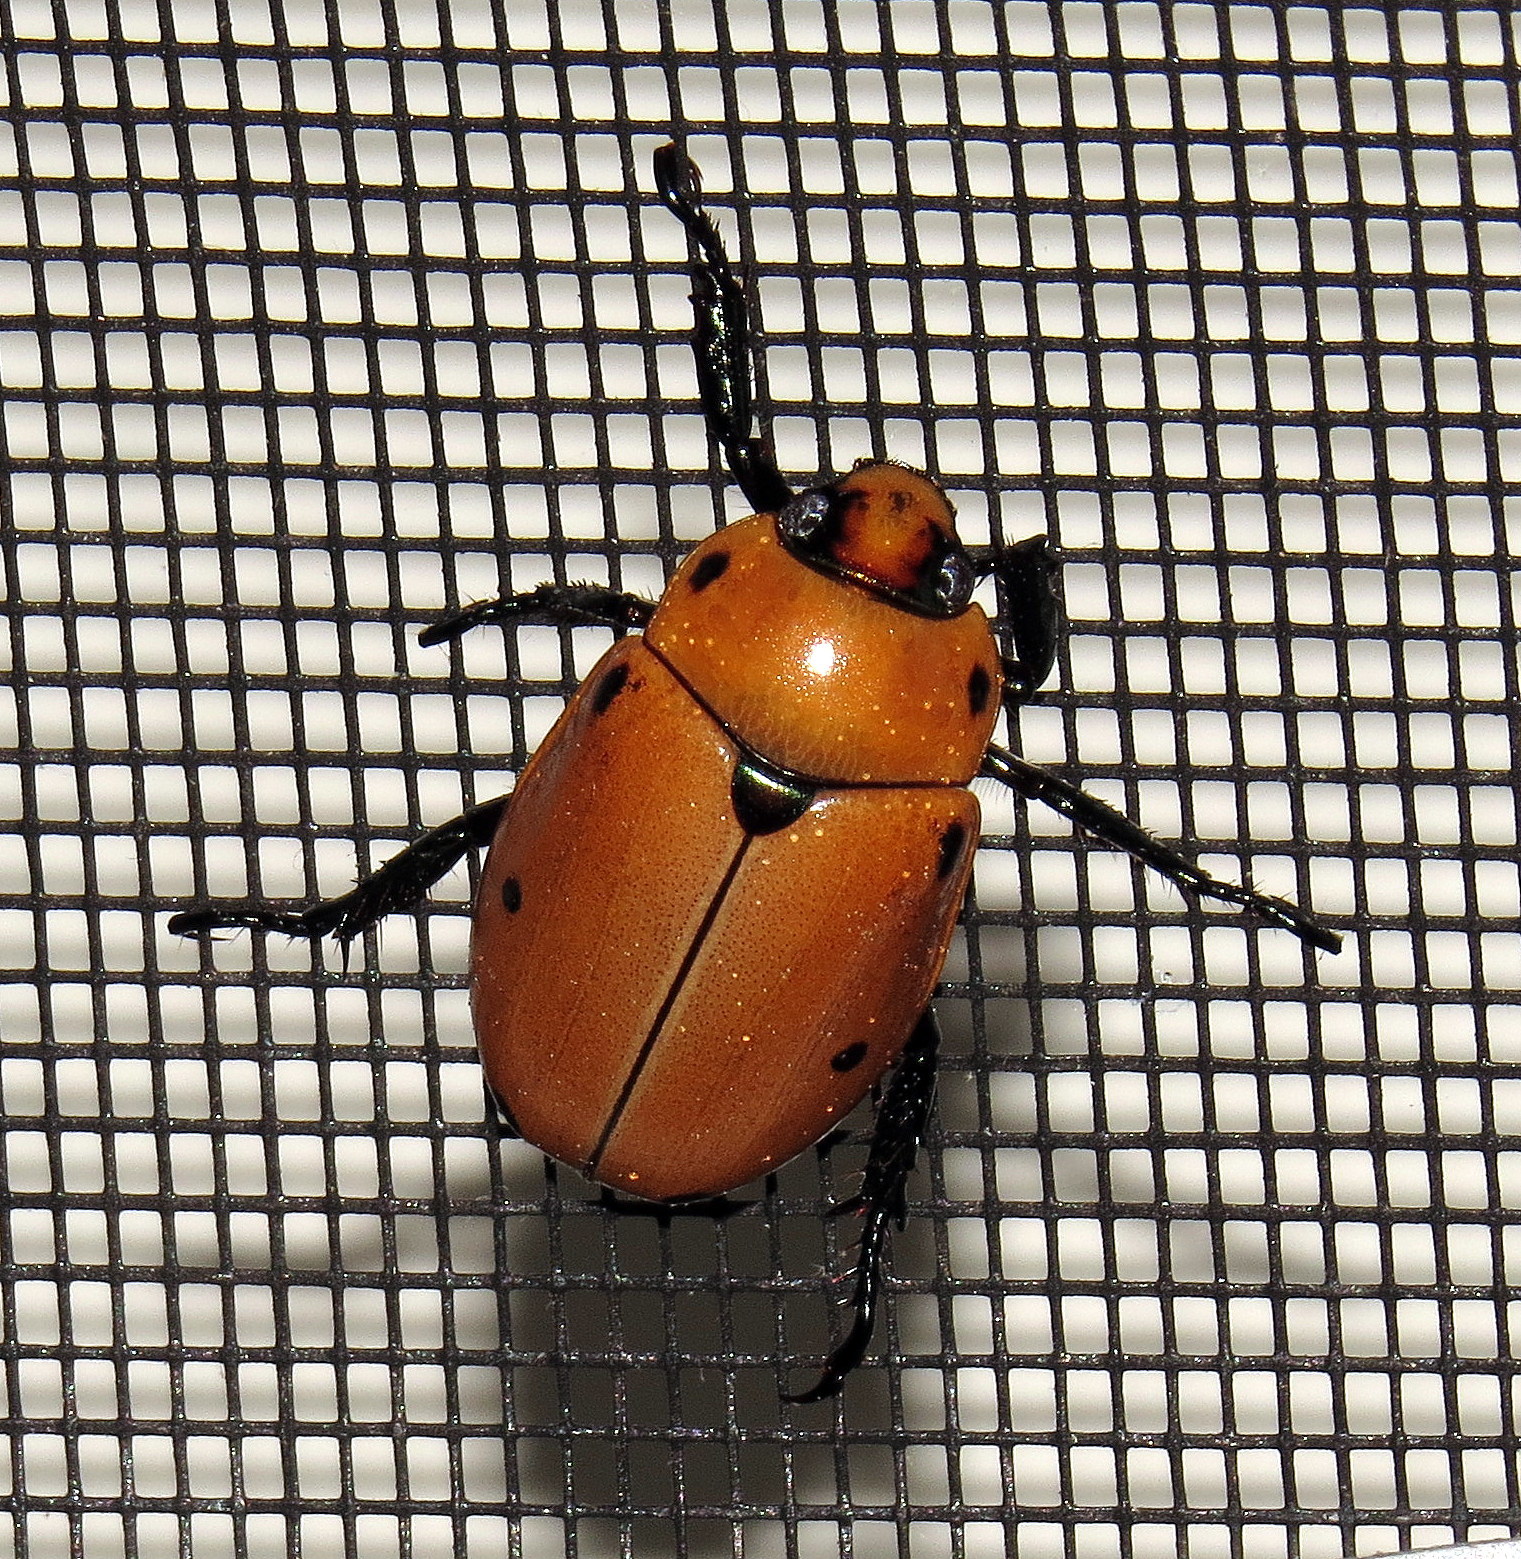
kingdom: Animalia
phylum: Arthropoda
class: Insecta
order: Coleoptera
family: Scarabaeidae
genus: Pelidnota
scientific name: Pelidnota punctata
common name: Grapevine beetle
